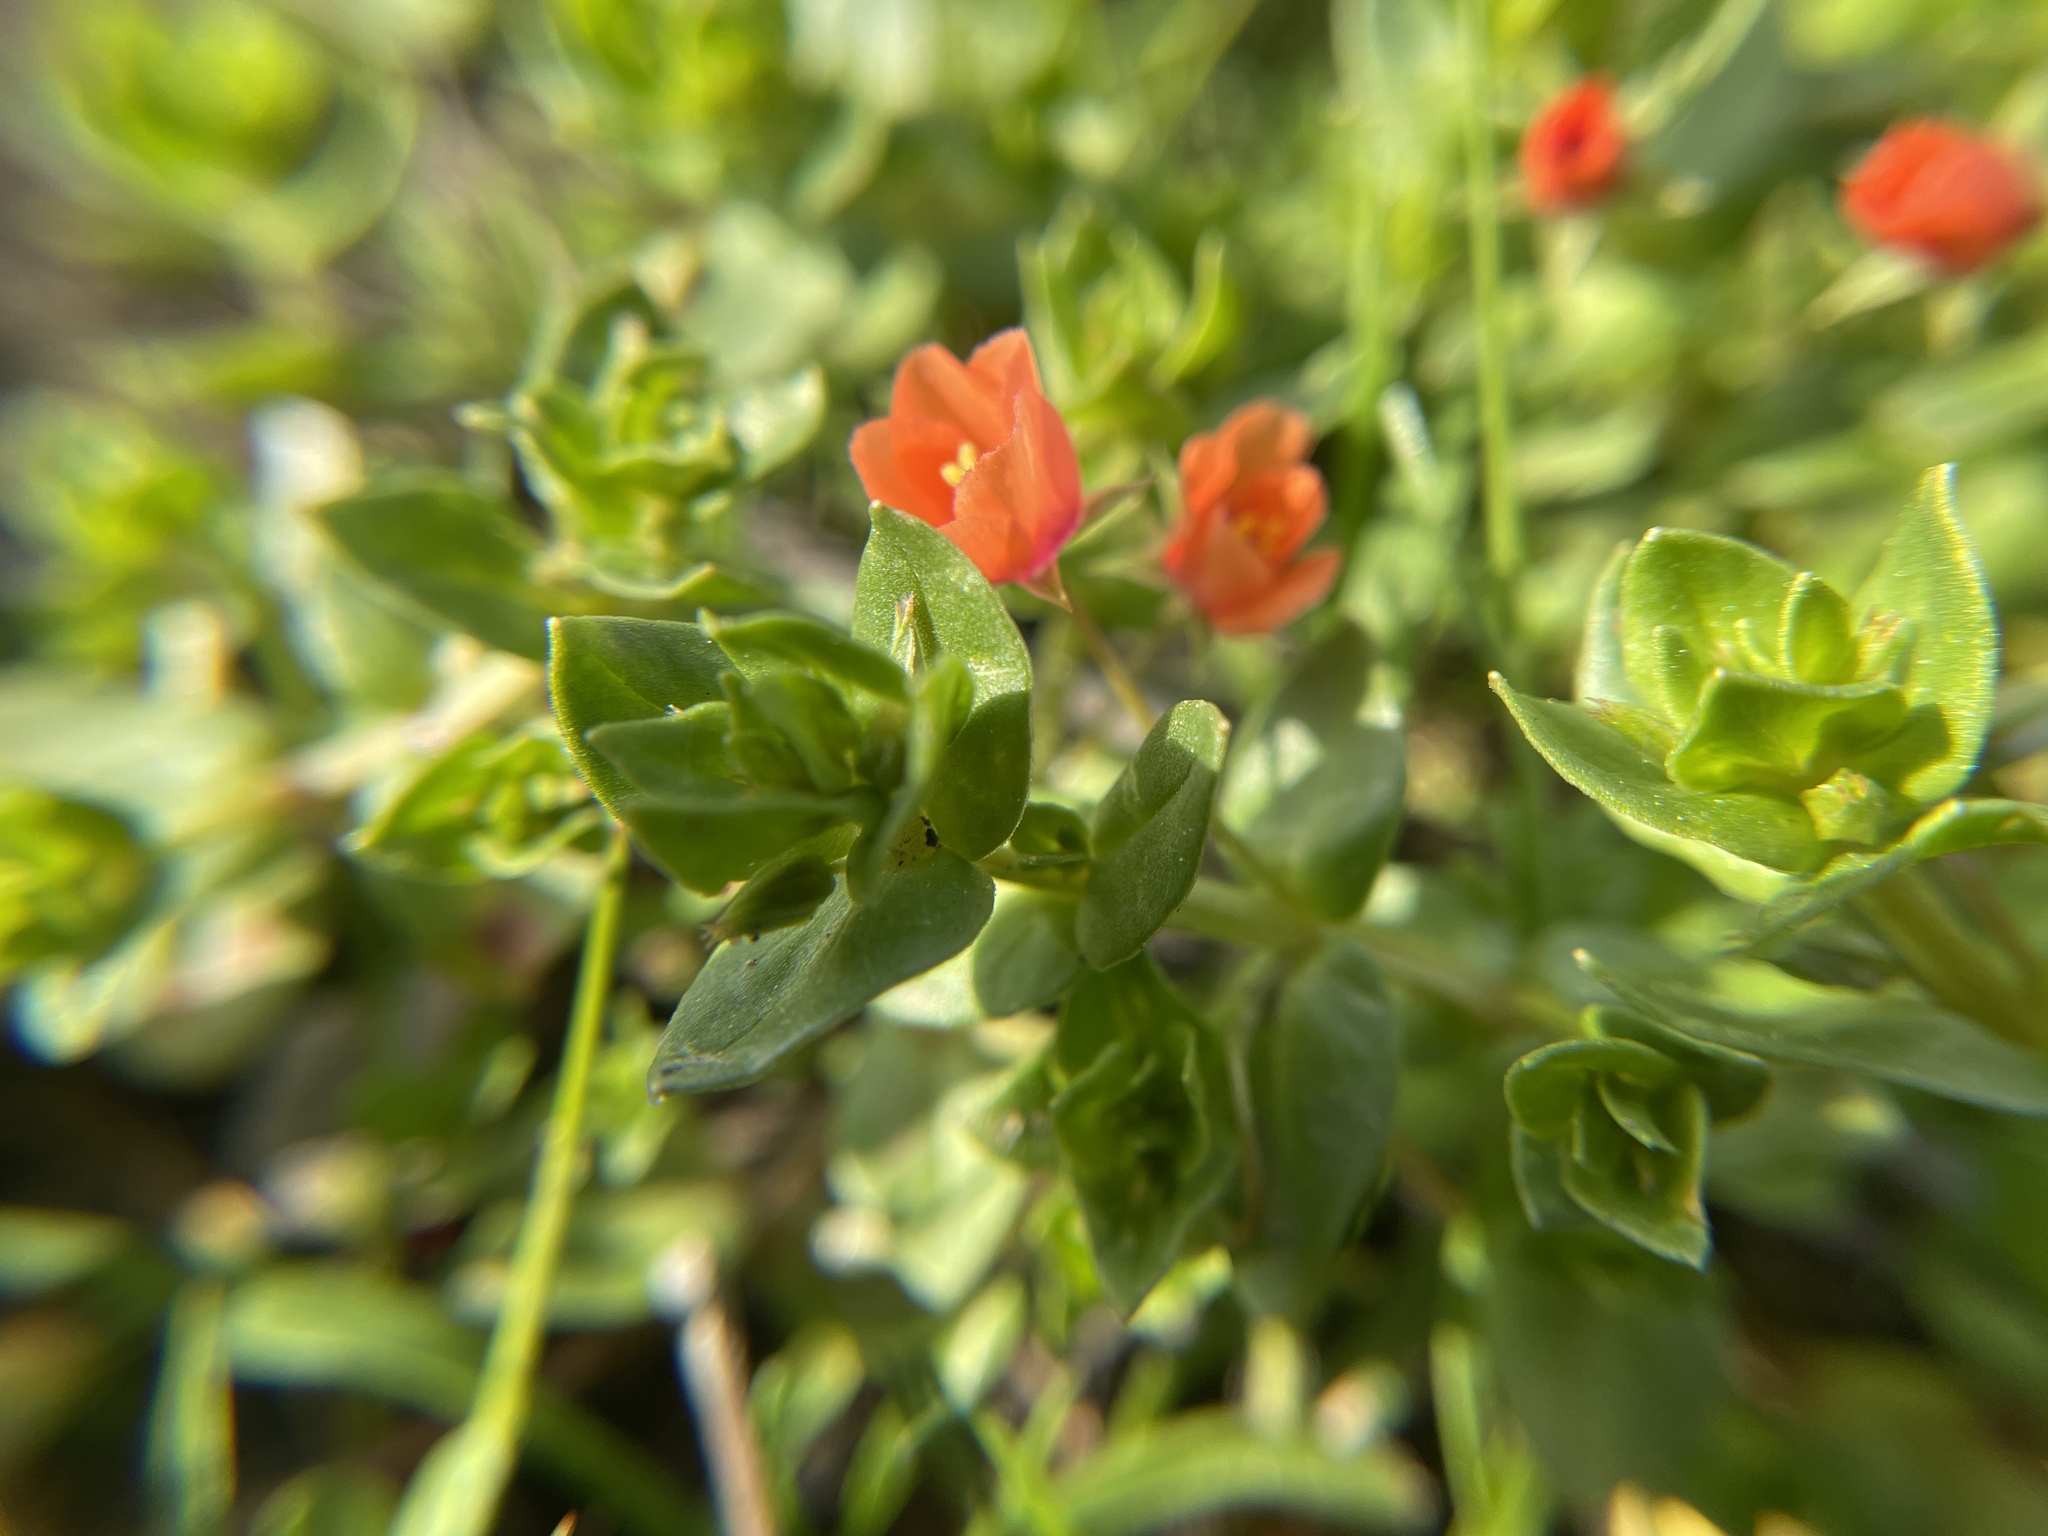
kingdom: Plantae
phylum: Tracheophyta
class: Magnoliopsida
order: Ericales
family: Primulaceae
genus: Lysimachia
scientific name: Lysimachia arvensis
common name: Scarlet pimpernel
